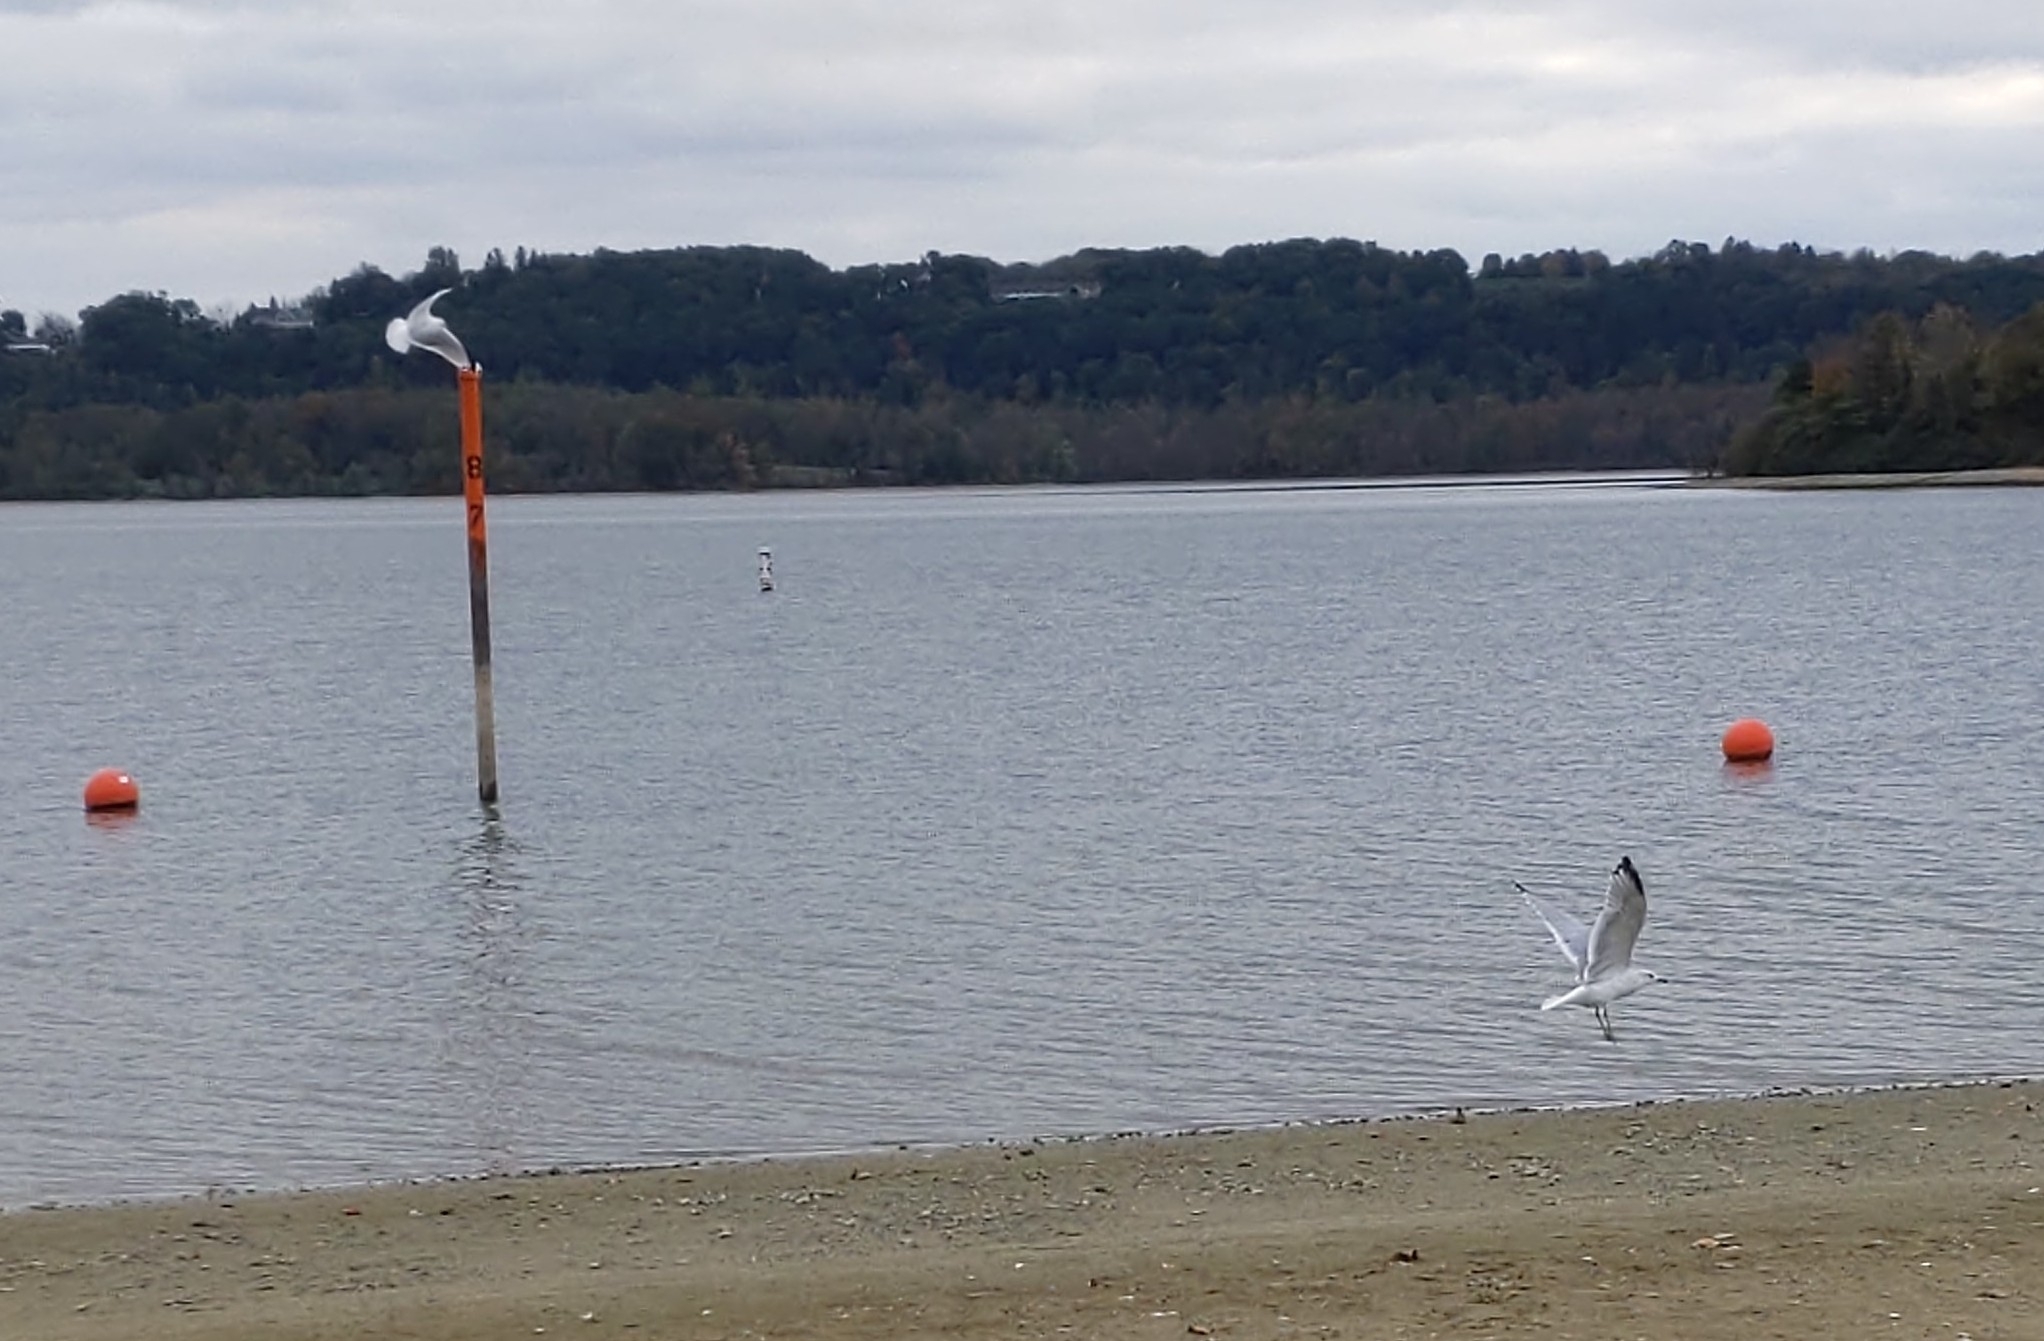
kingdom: Animalia
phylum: Chordata
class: Aves
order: Charadriiformes
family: Laridae
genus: Larus
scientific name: Larus delawarensis
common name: Ring-billed gull
